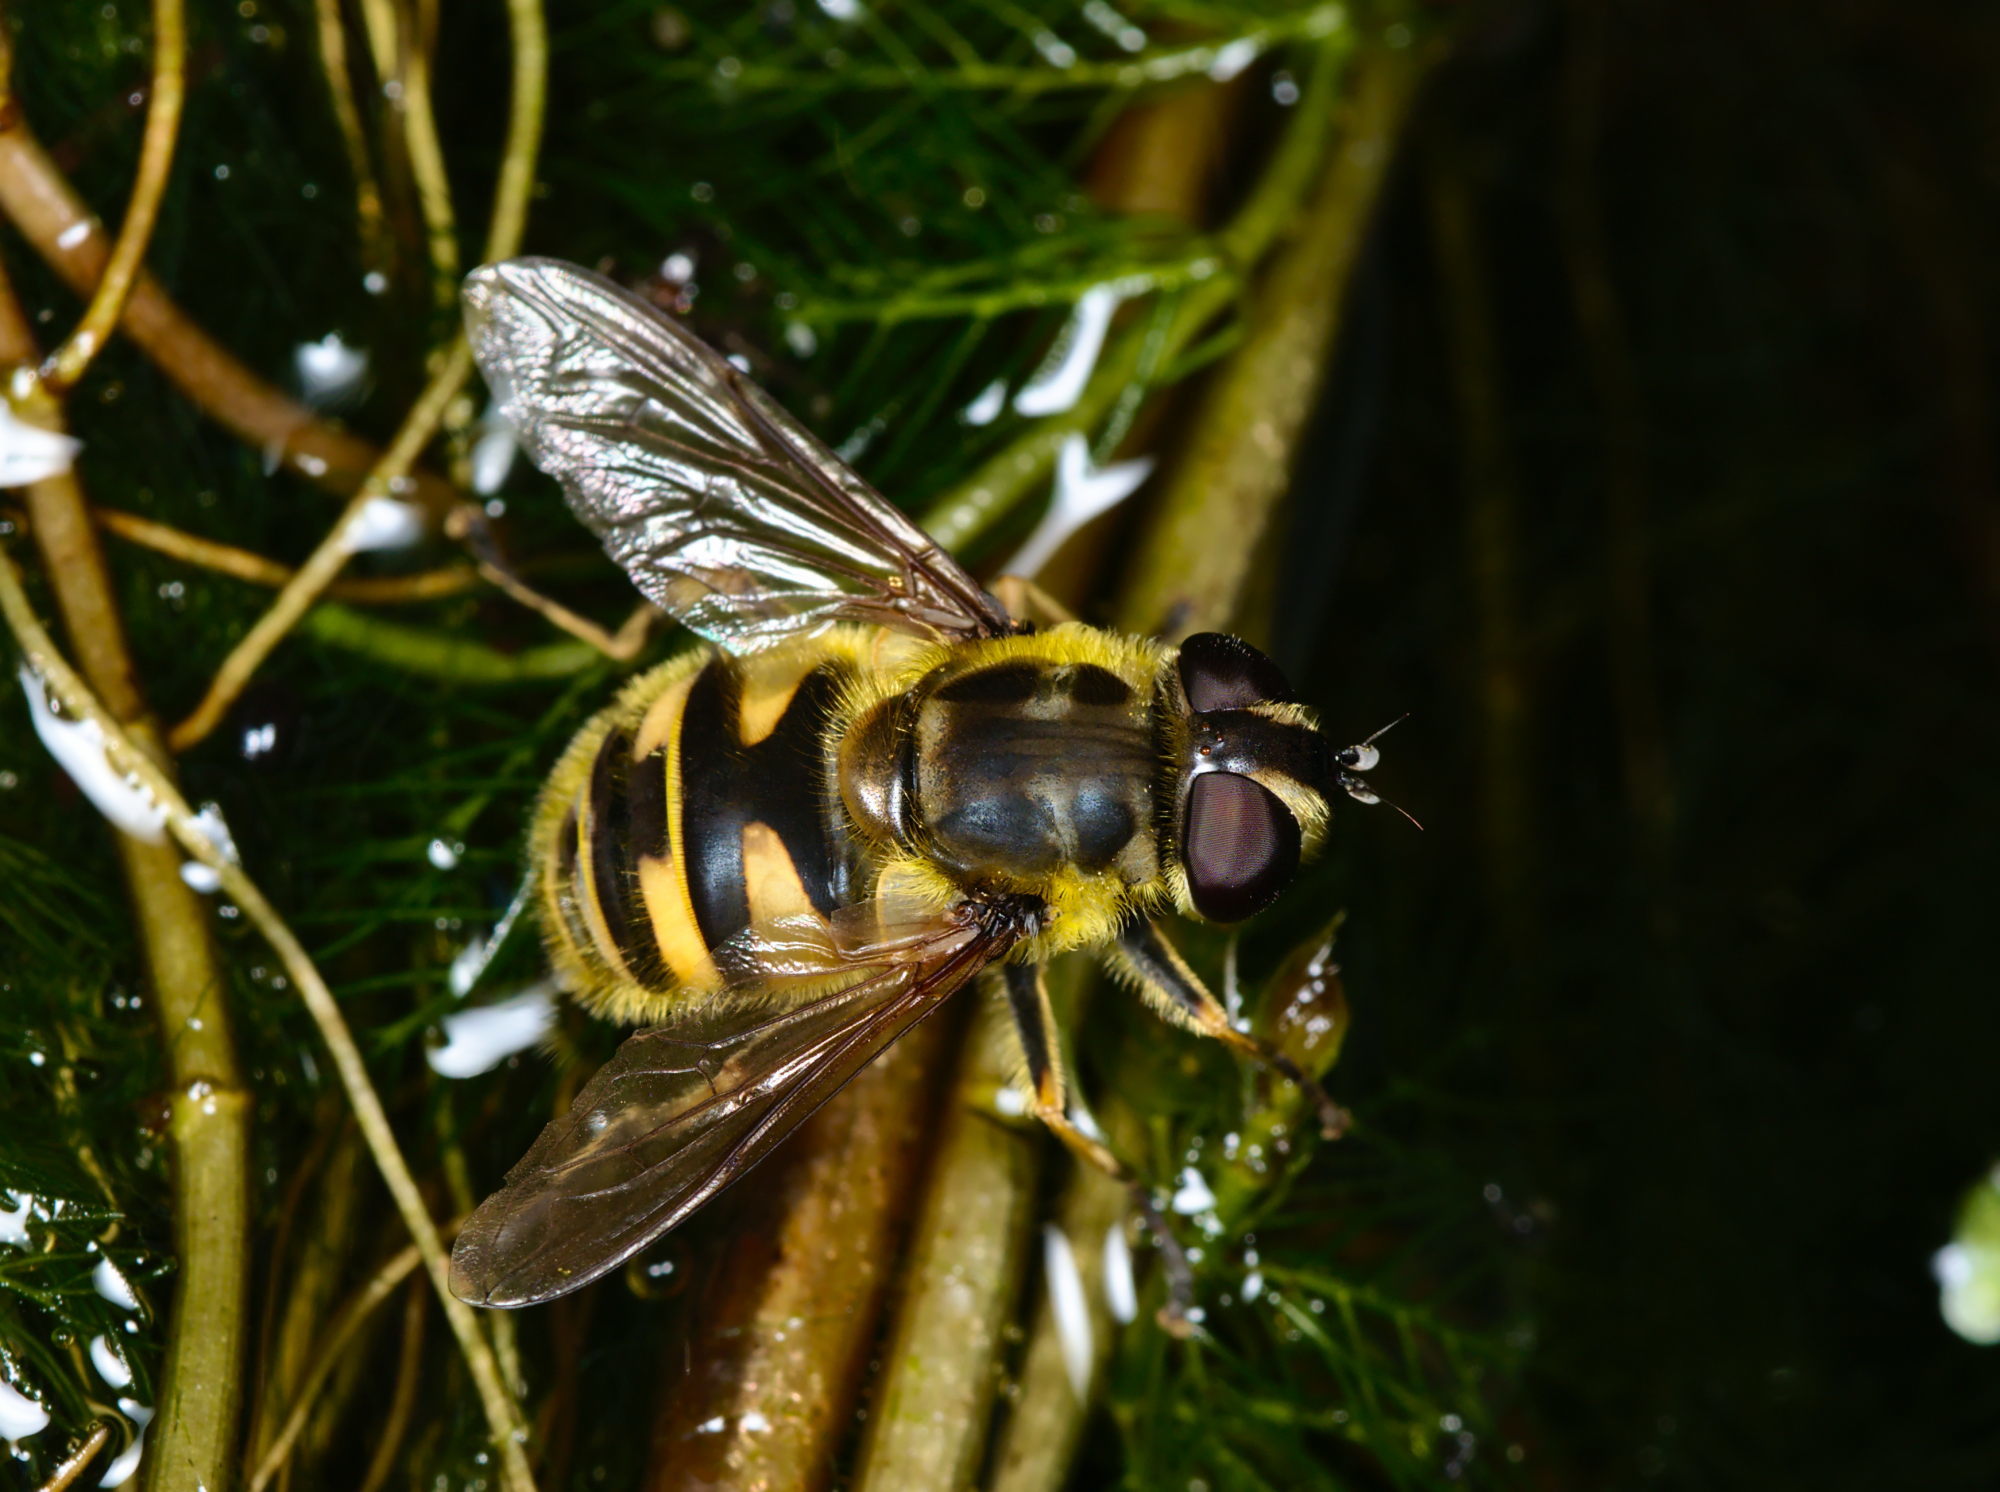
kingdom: Animalia
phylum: Arthropoda
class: Insecta
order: Diptera
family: Syrphidae
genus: Myathropa
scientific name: Myathropa florea
